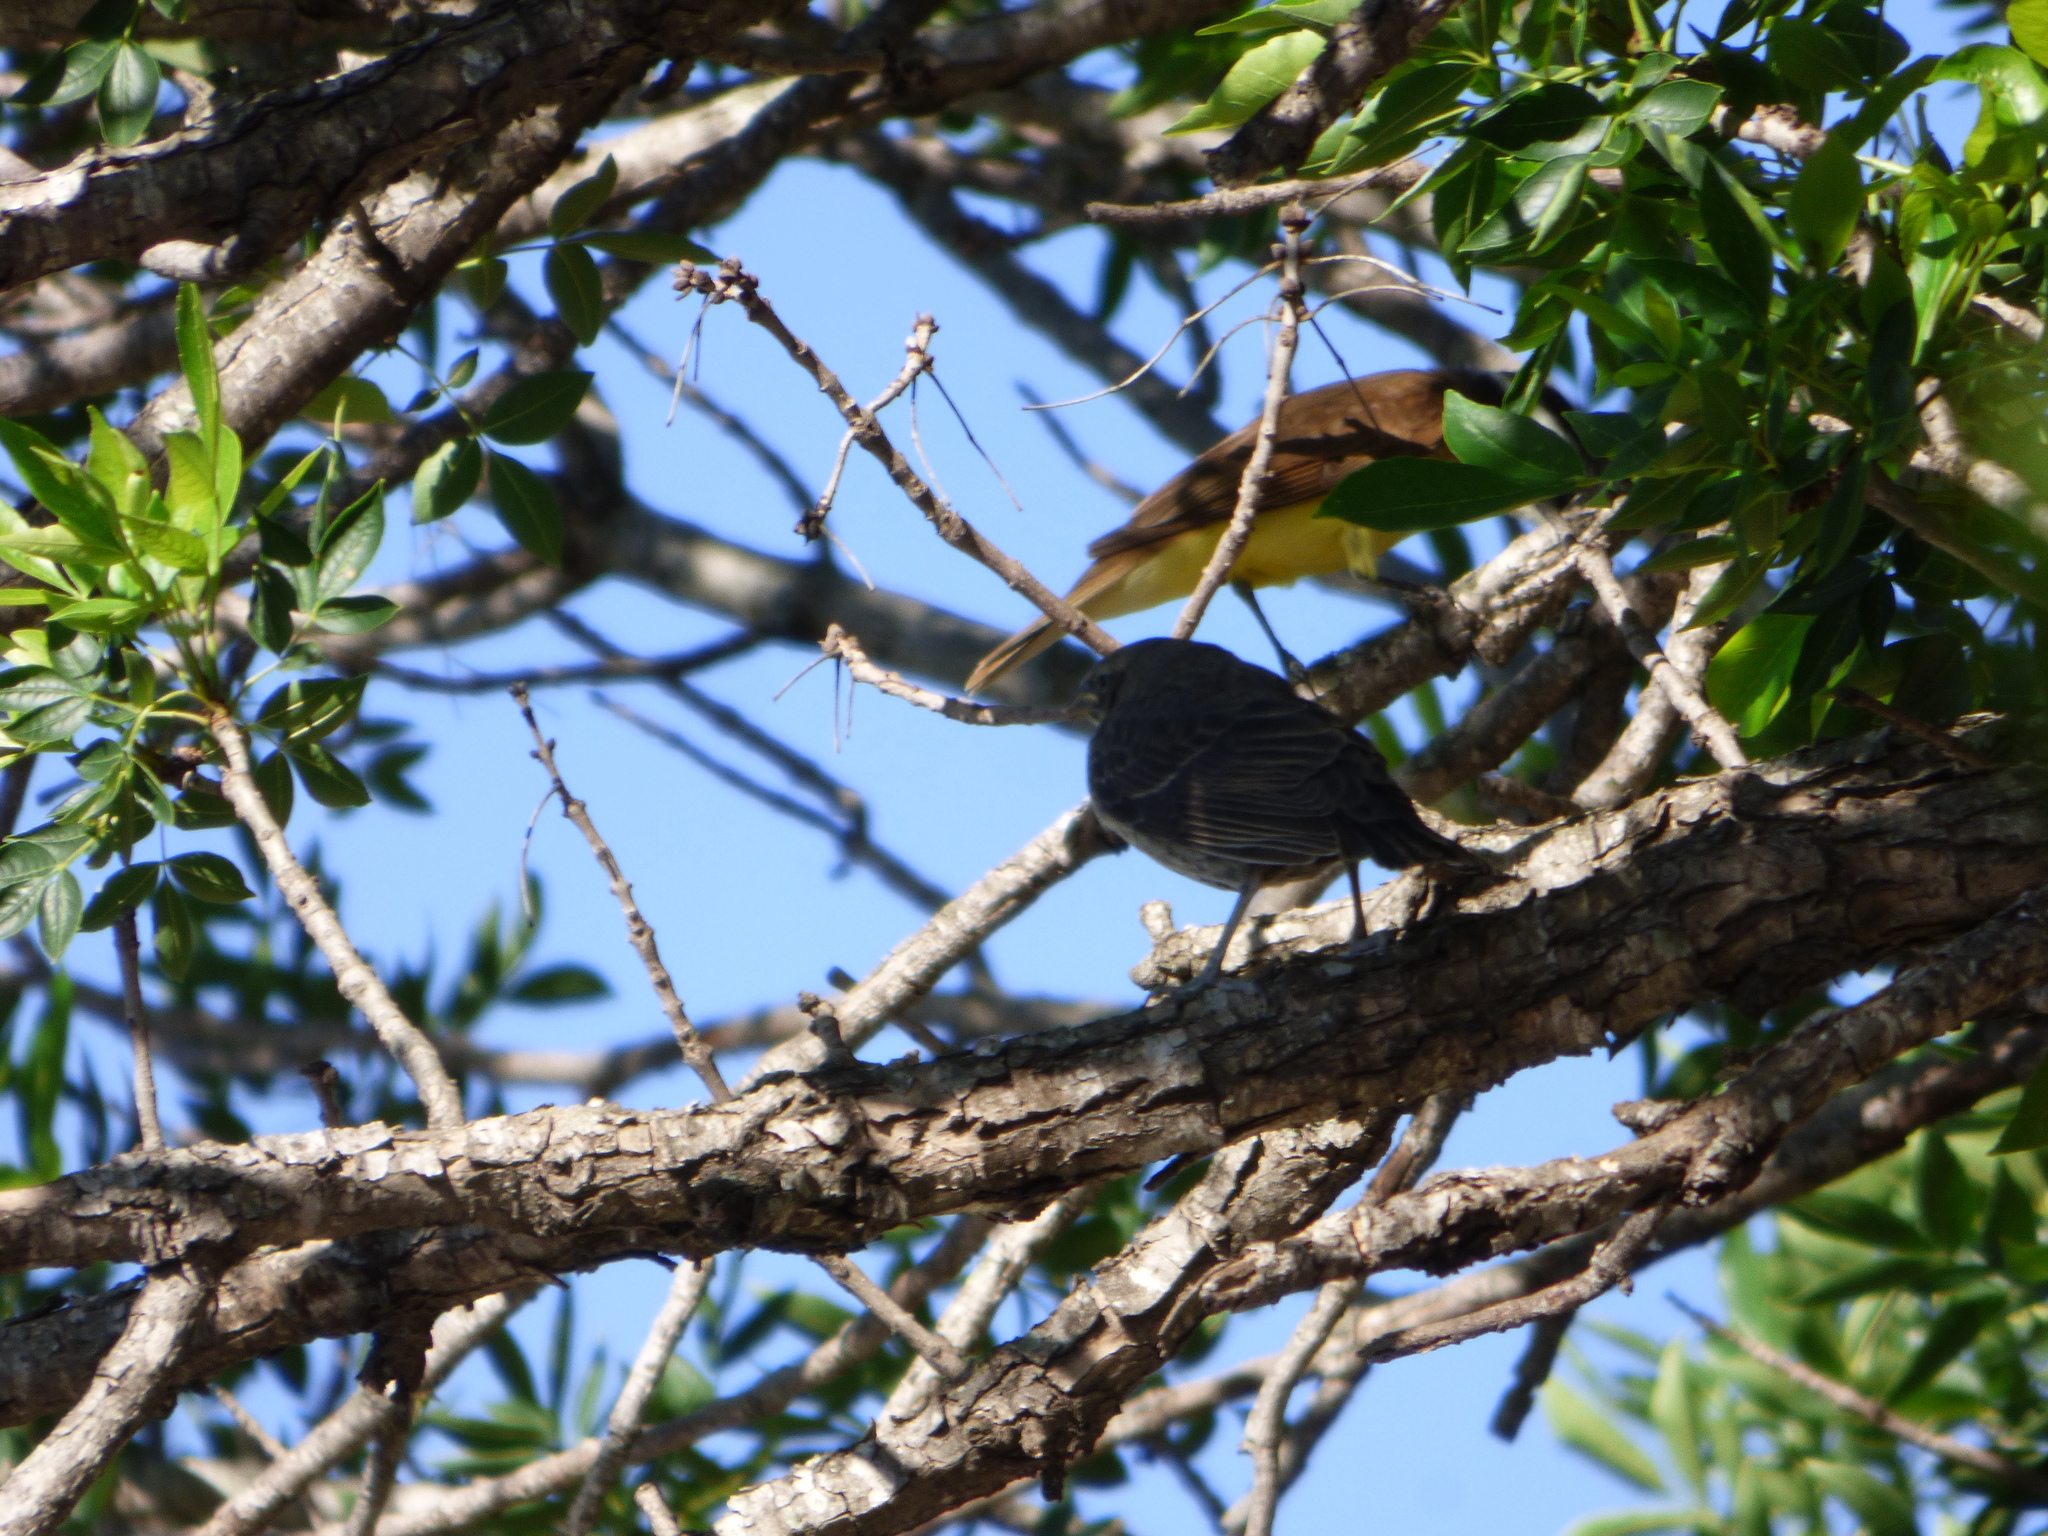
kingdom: Animalia
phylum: Chordata
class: Aves
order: Passeriformes
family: Icteridae
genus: Molothrus
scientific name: Molothrus bonariensis
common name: Shiny cowbird
